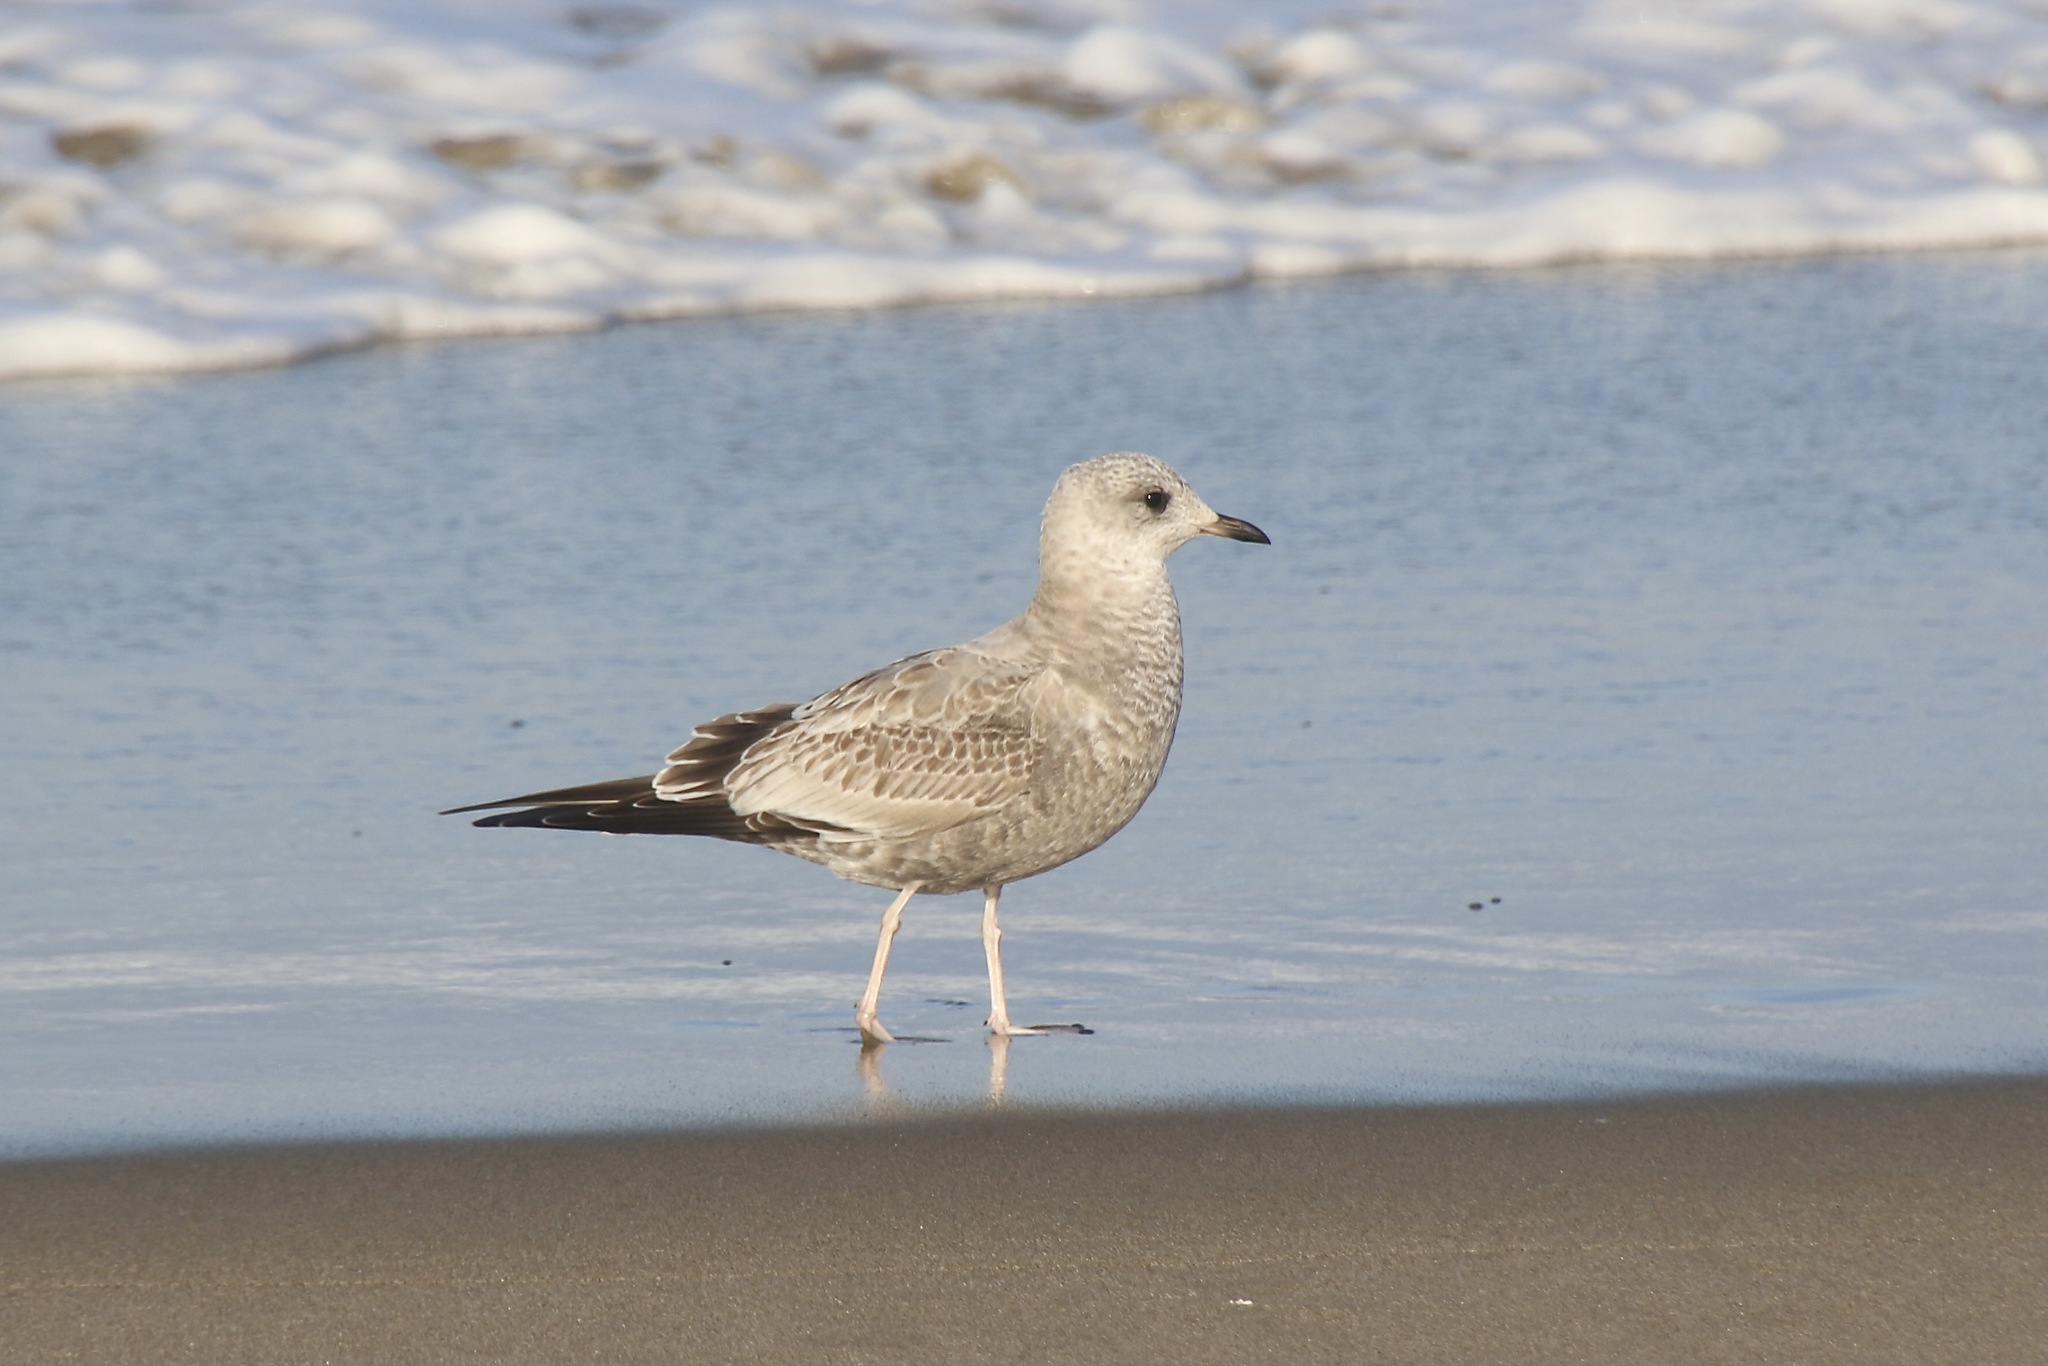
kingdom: Animalia
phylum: Chordata
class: Aves
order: Charadriiformes
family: Laridae
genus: Larus
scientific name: Larus brachyrhynchus
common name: Short-billed gull
